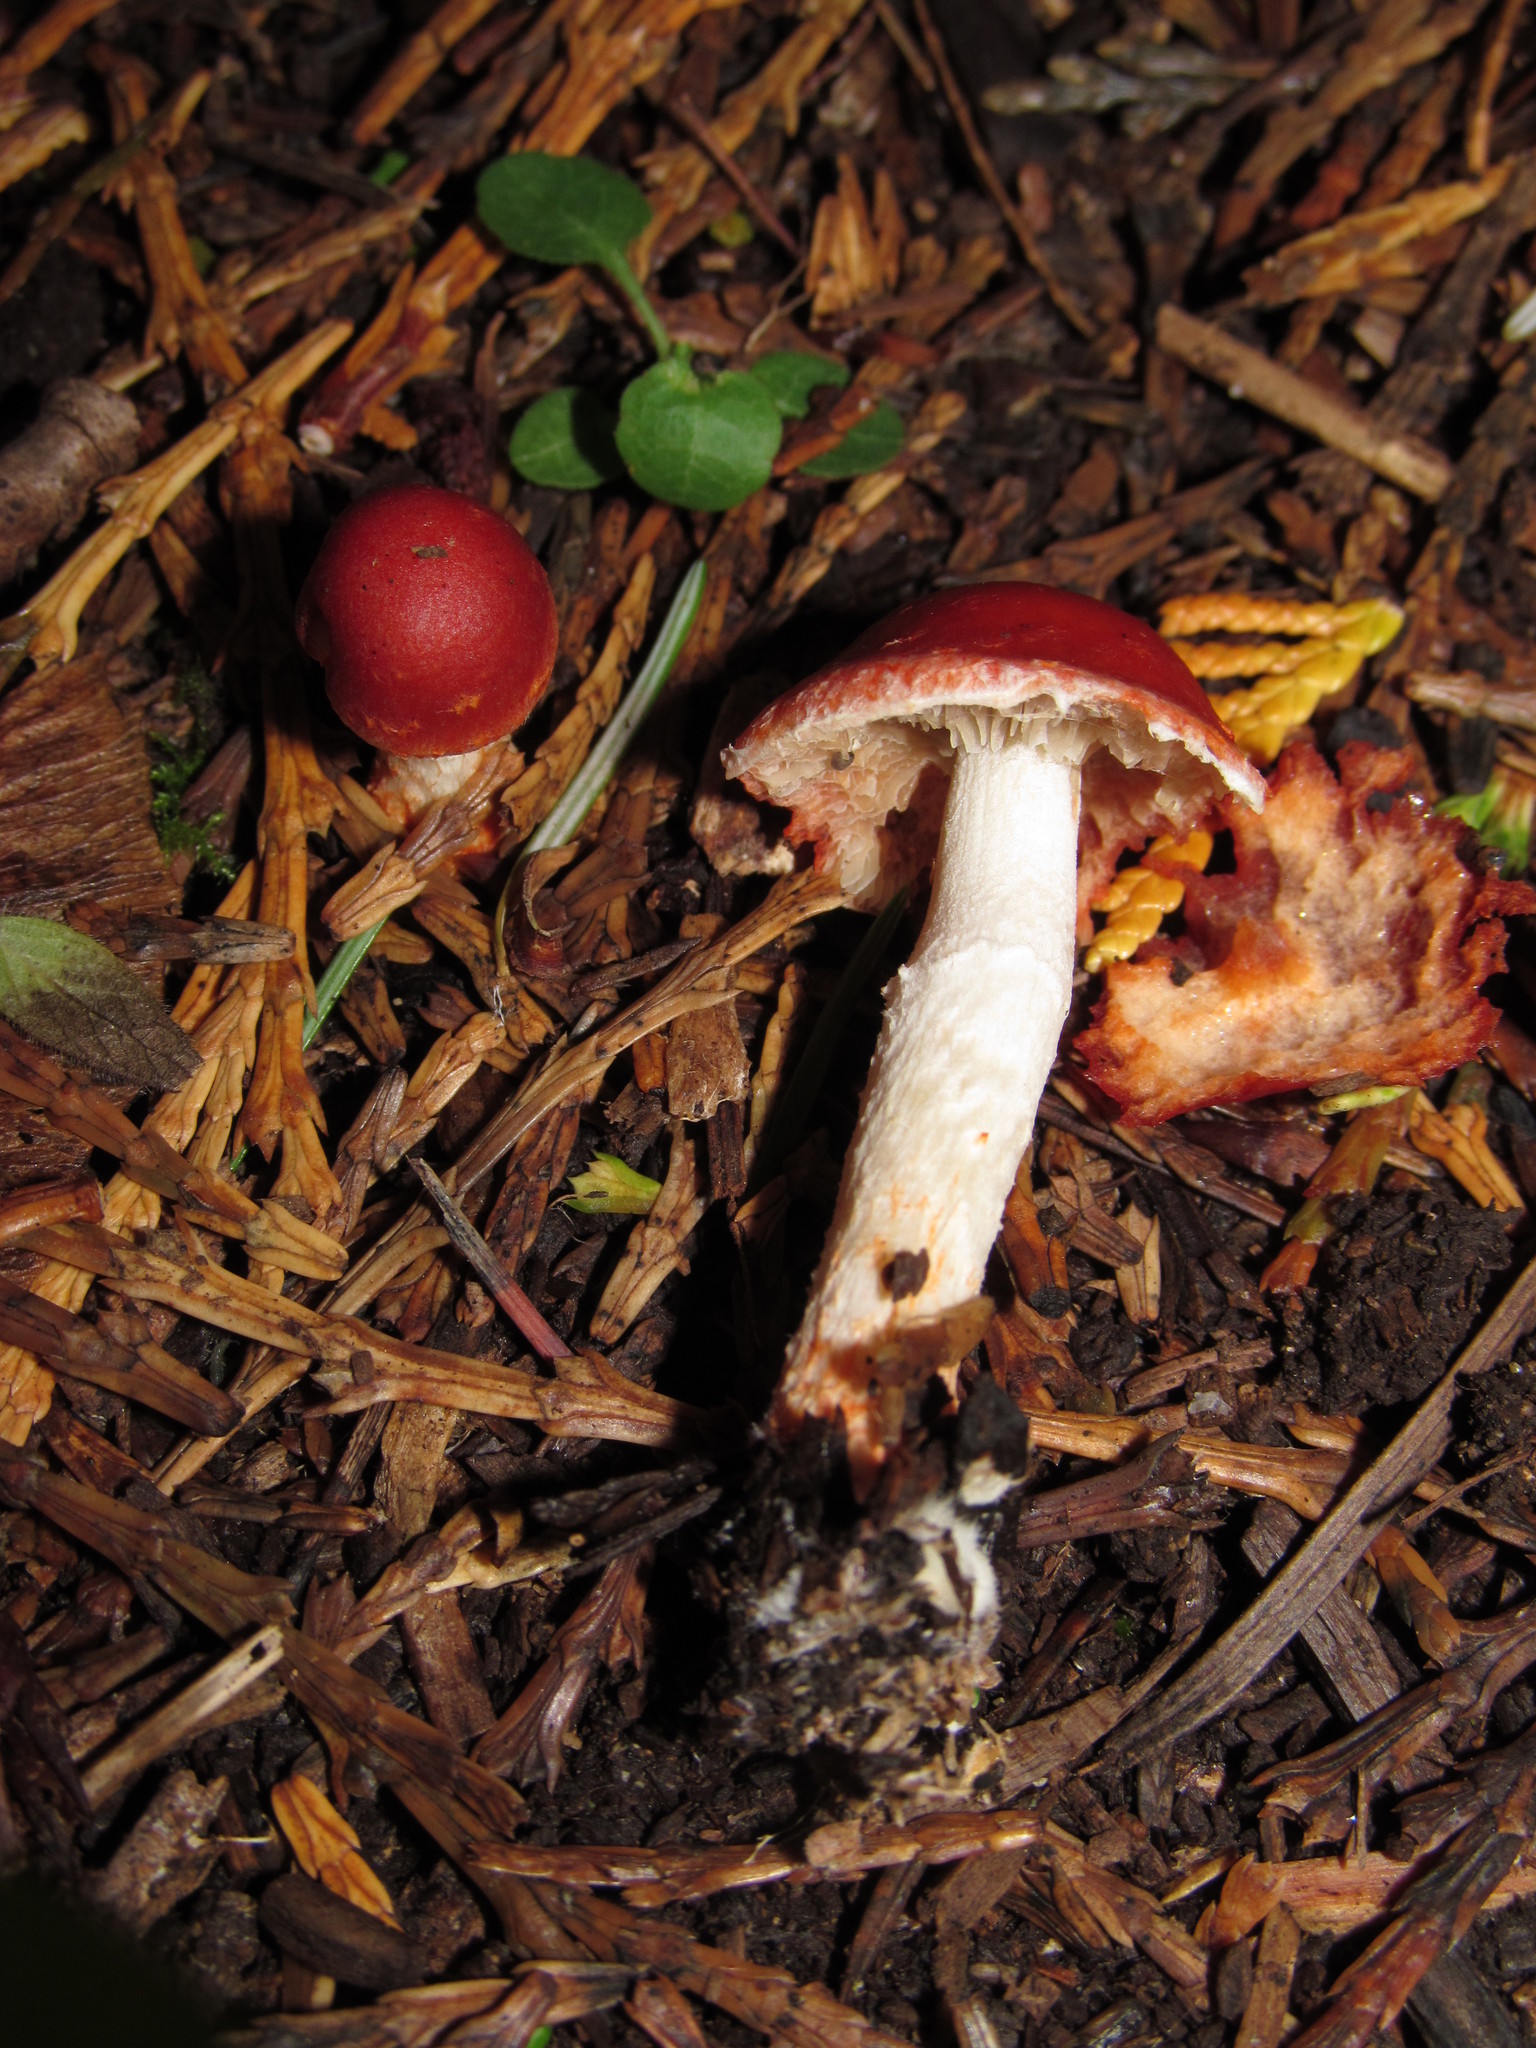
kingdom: Fungi
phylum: Basidiomycota
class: Agaricomycetes
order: Agaricales
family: Strophariaceae
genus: Leratiomyces
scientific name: Leratiomyces ceres
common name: Redlead roundhead
